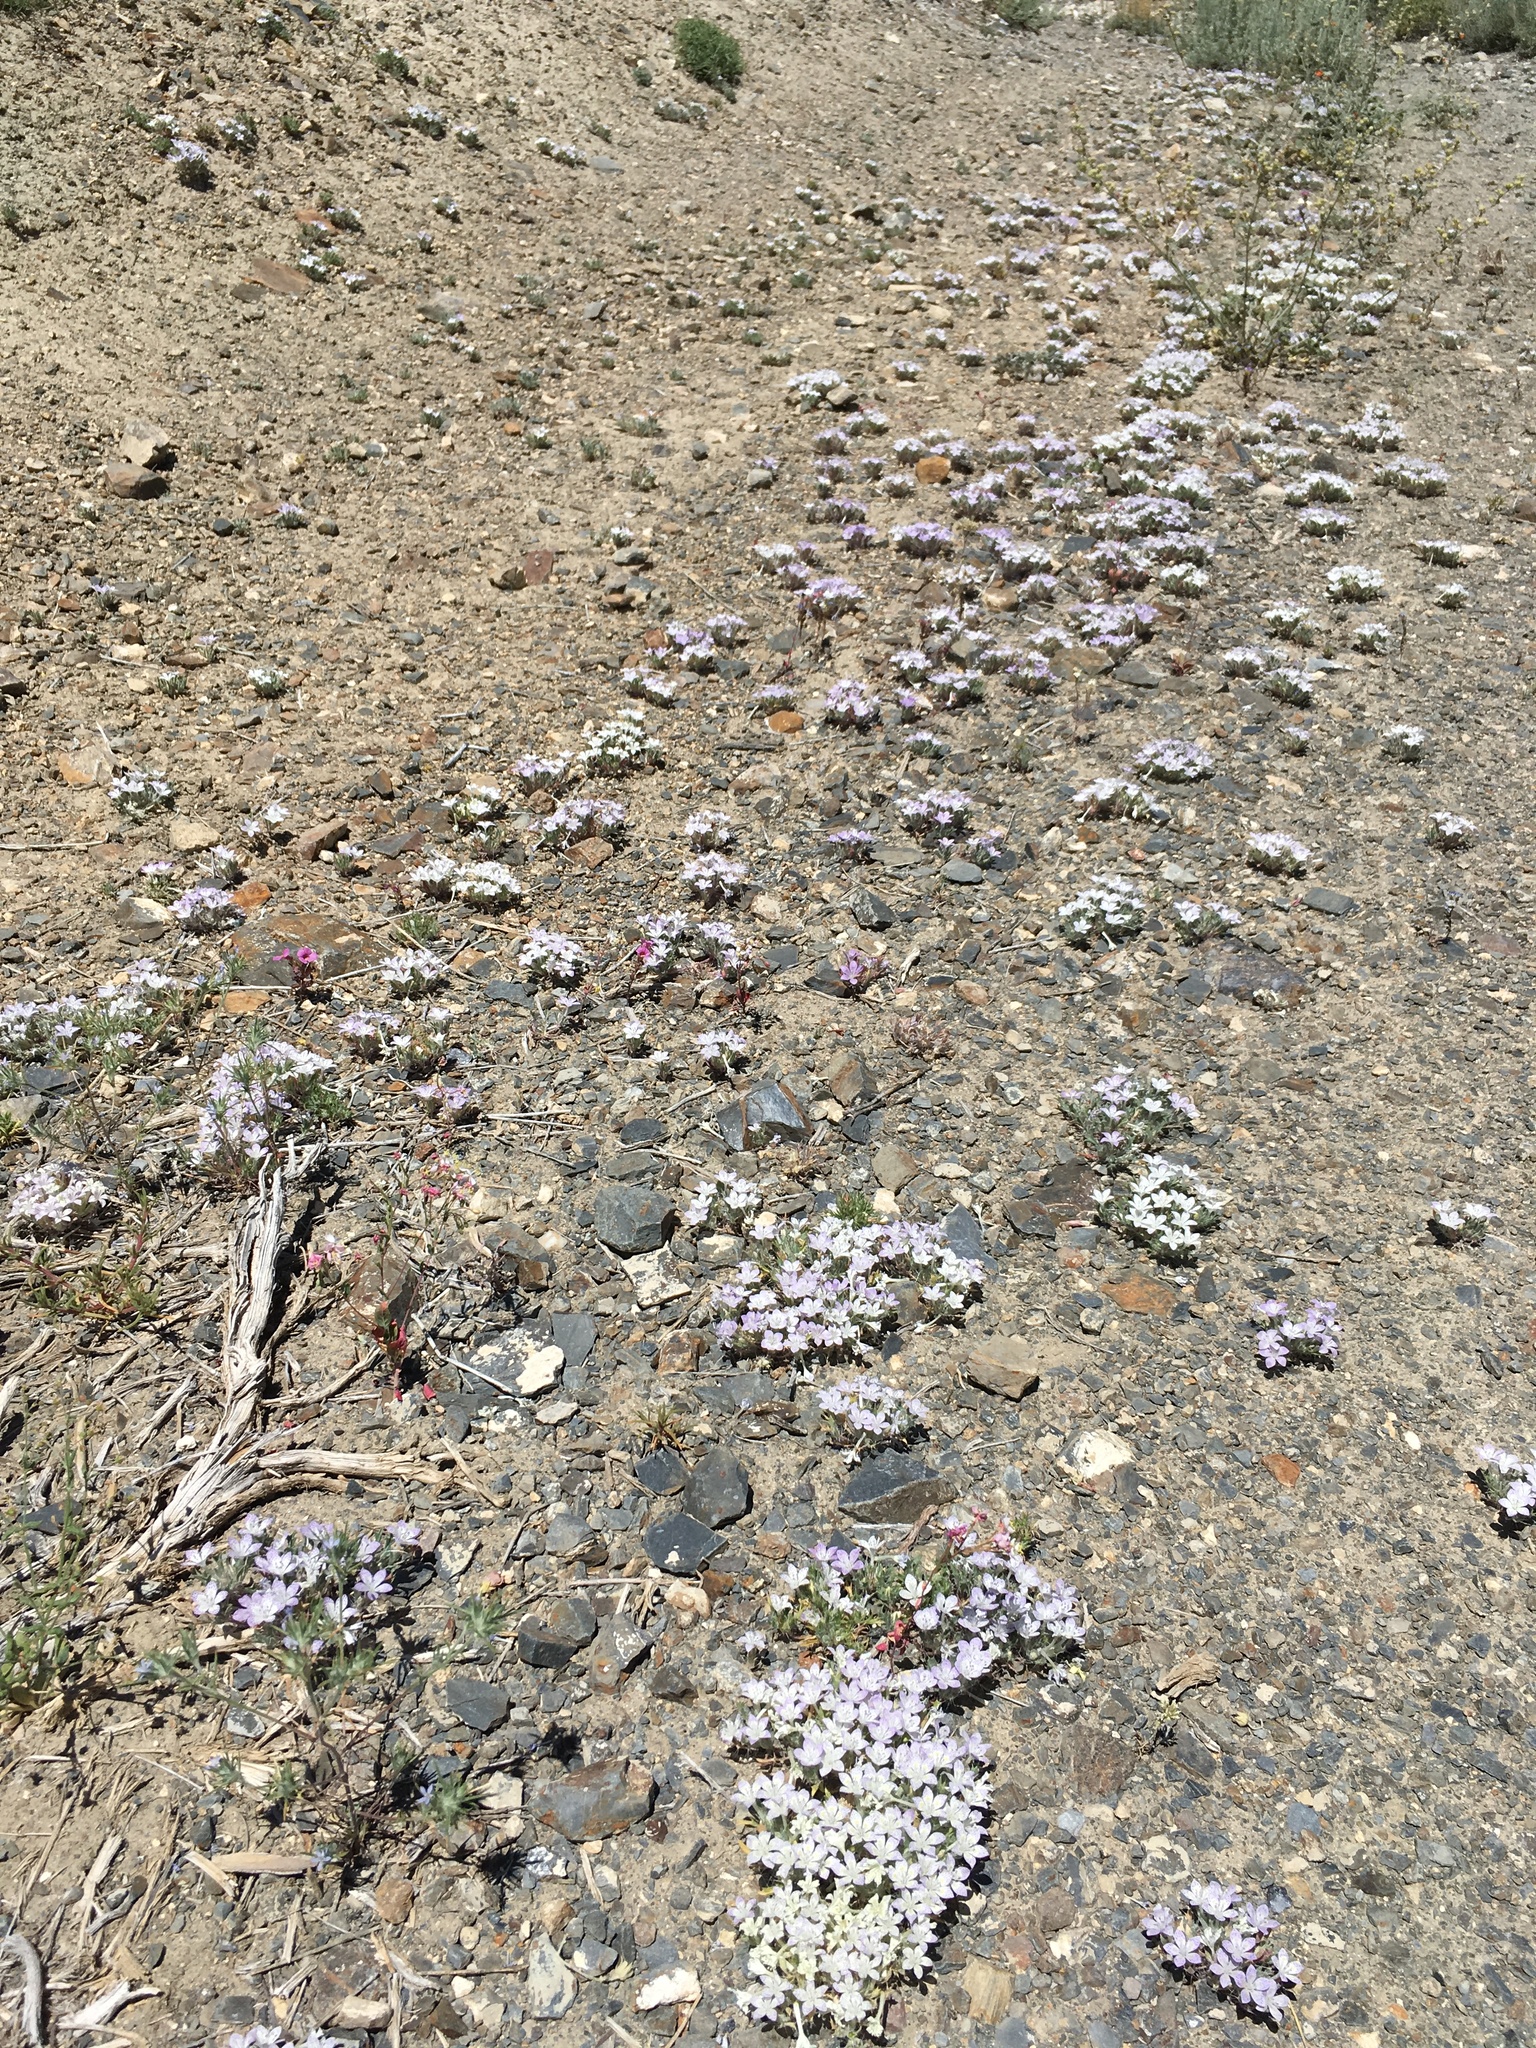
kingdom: Plantae
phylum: Tracheophyta
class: Magnoliopsida
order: Ericales
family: Polemoniaceae
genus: Langloisia
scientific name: Langloisia setosissima
